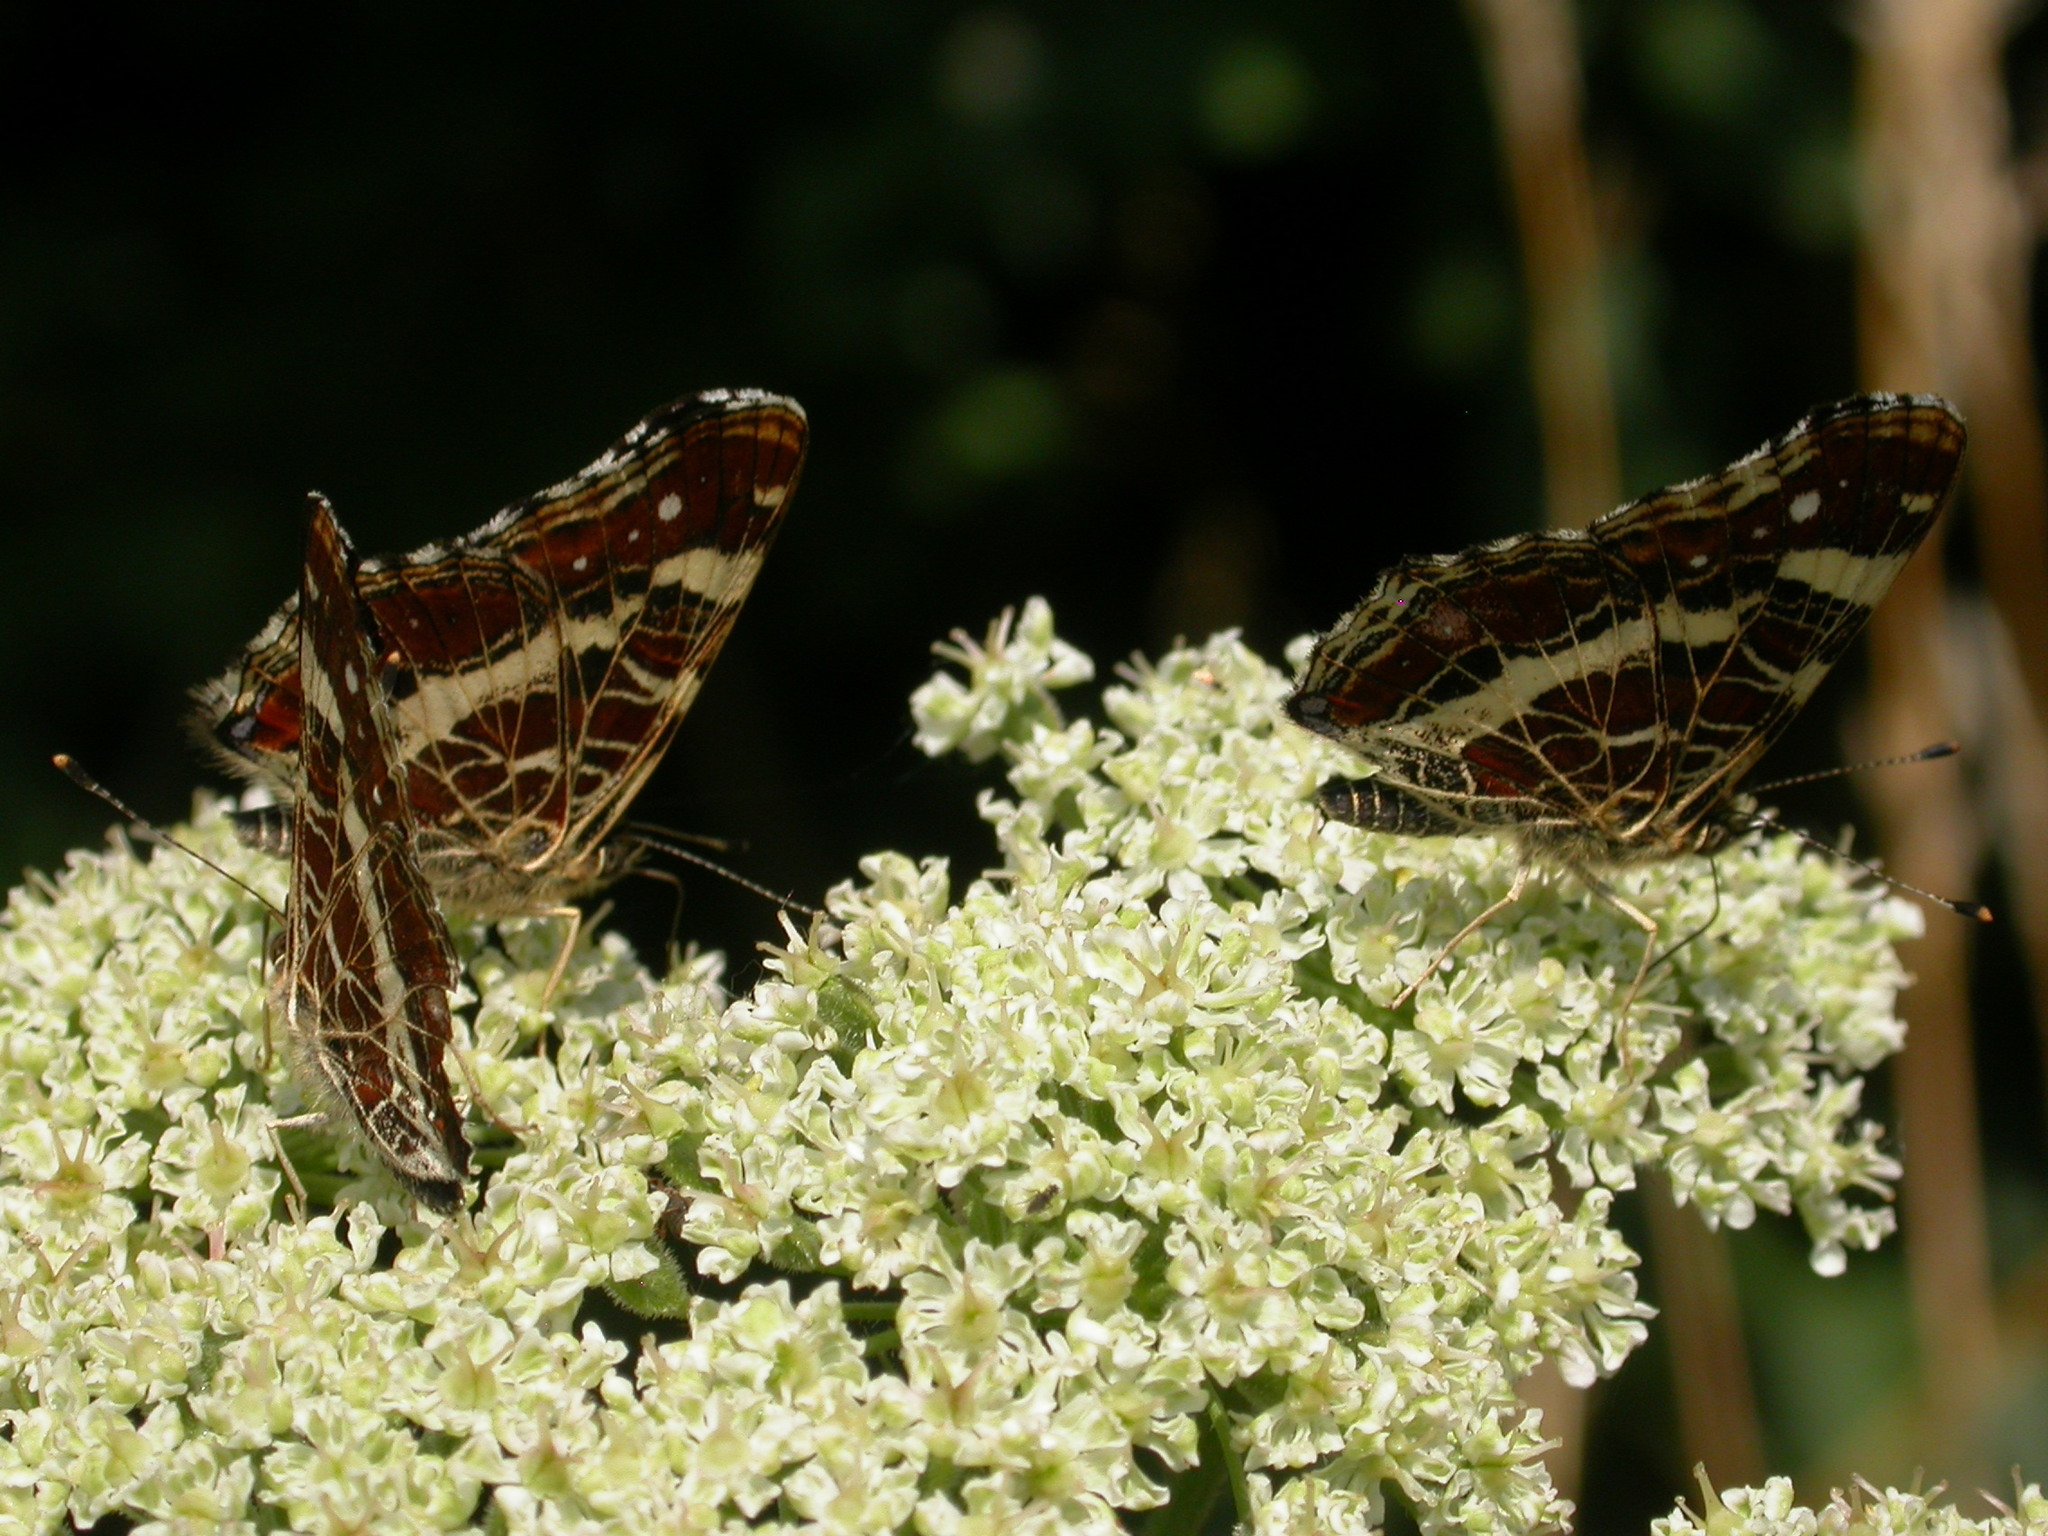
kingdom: Animalia
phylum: Arthropoda
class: Insecta
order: Lepidoptera
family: Nymphalidae
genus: Araschnia
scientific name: Araschnia levana
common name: Map butterfly
